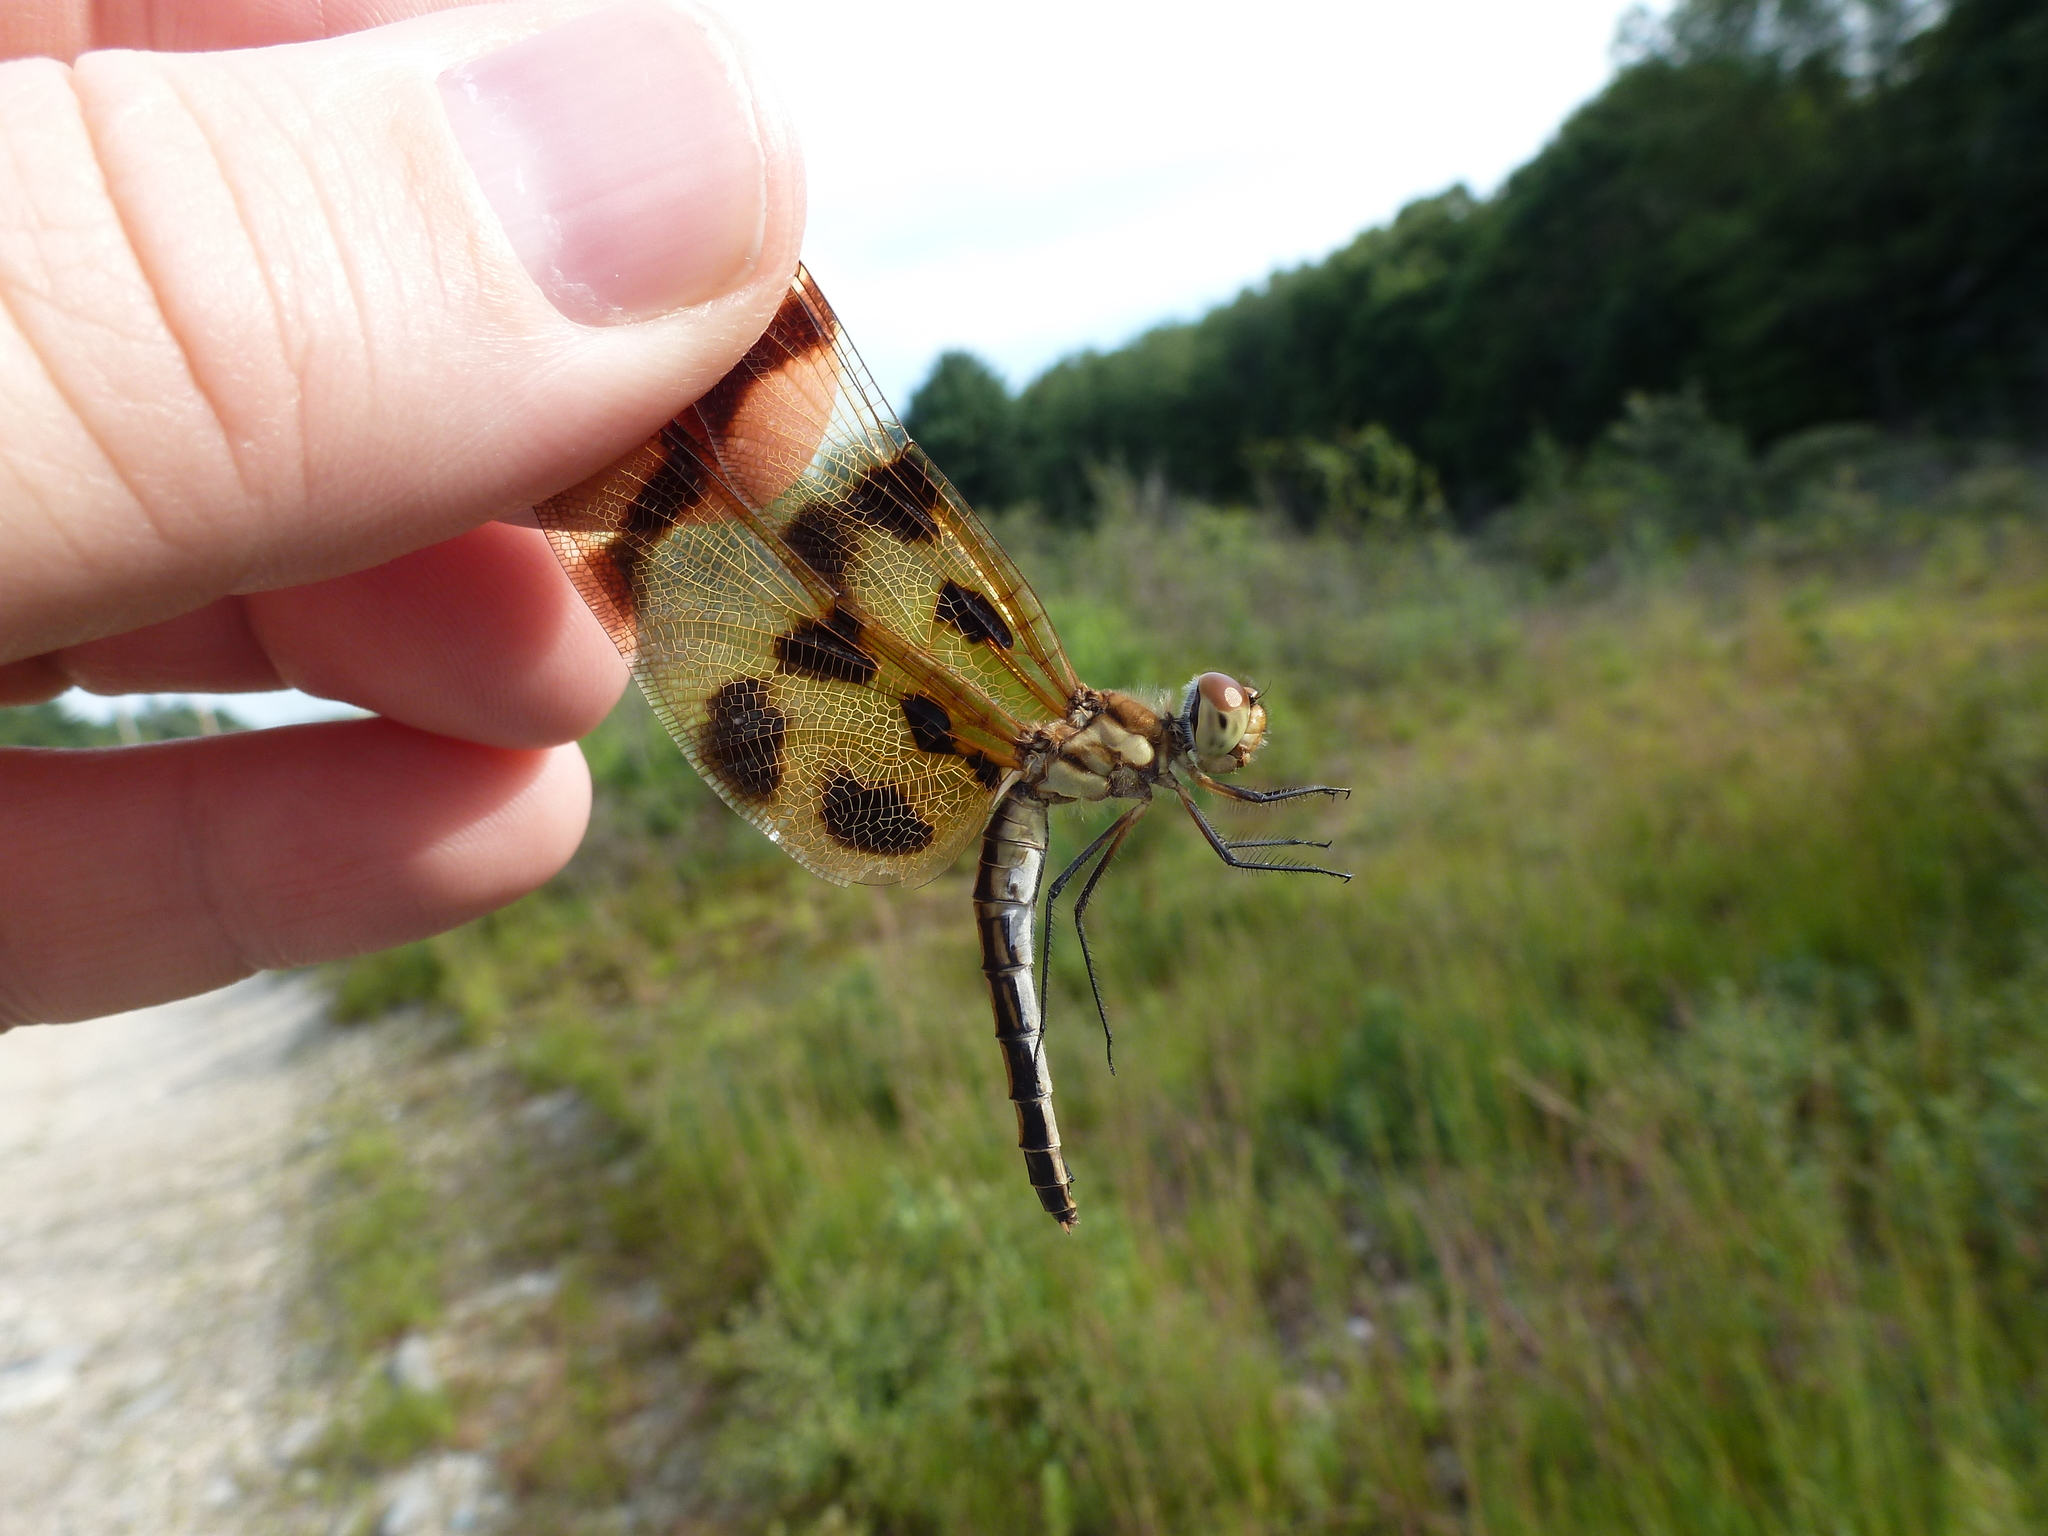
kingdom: Animalia
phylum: Arthropoda
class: Insecta
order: Odonata
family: Libellulidae
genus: Celithemis
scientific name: Celithemis eponina
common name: Halloween pennant
